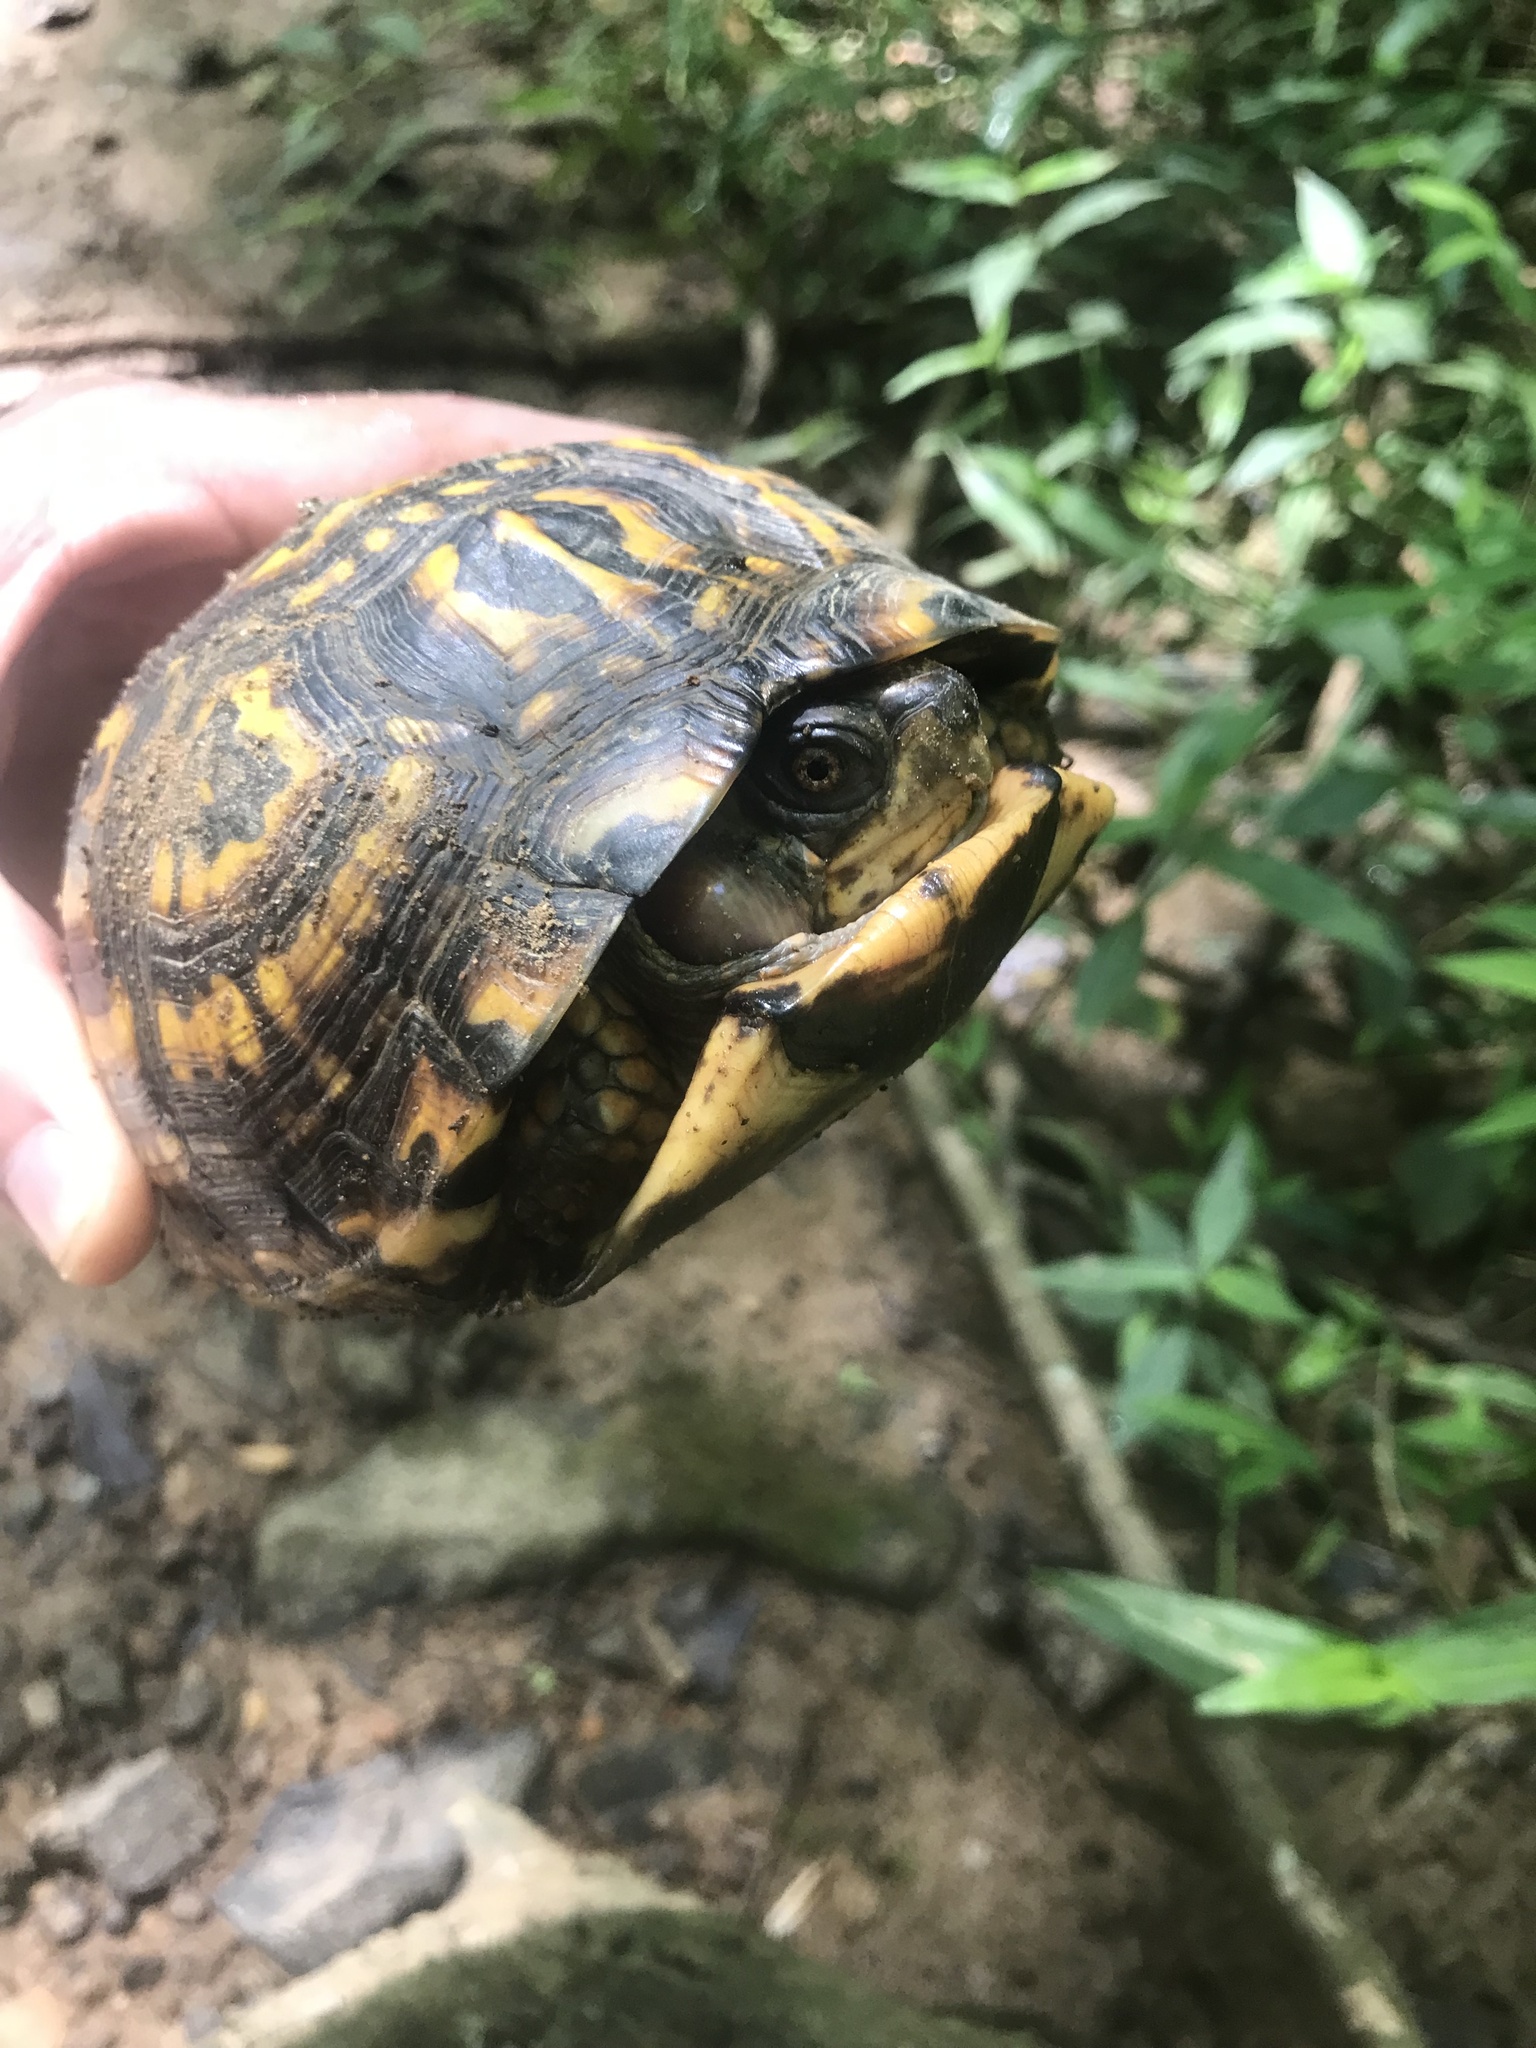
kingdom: Animalia
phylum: Chordata
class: Testudines
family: Emydidae
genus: Terrapene
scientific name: Terrapene carolina
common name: Common box turtle
